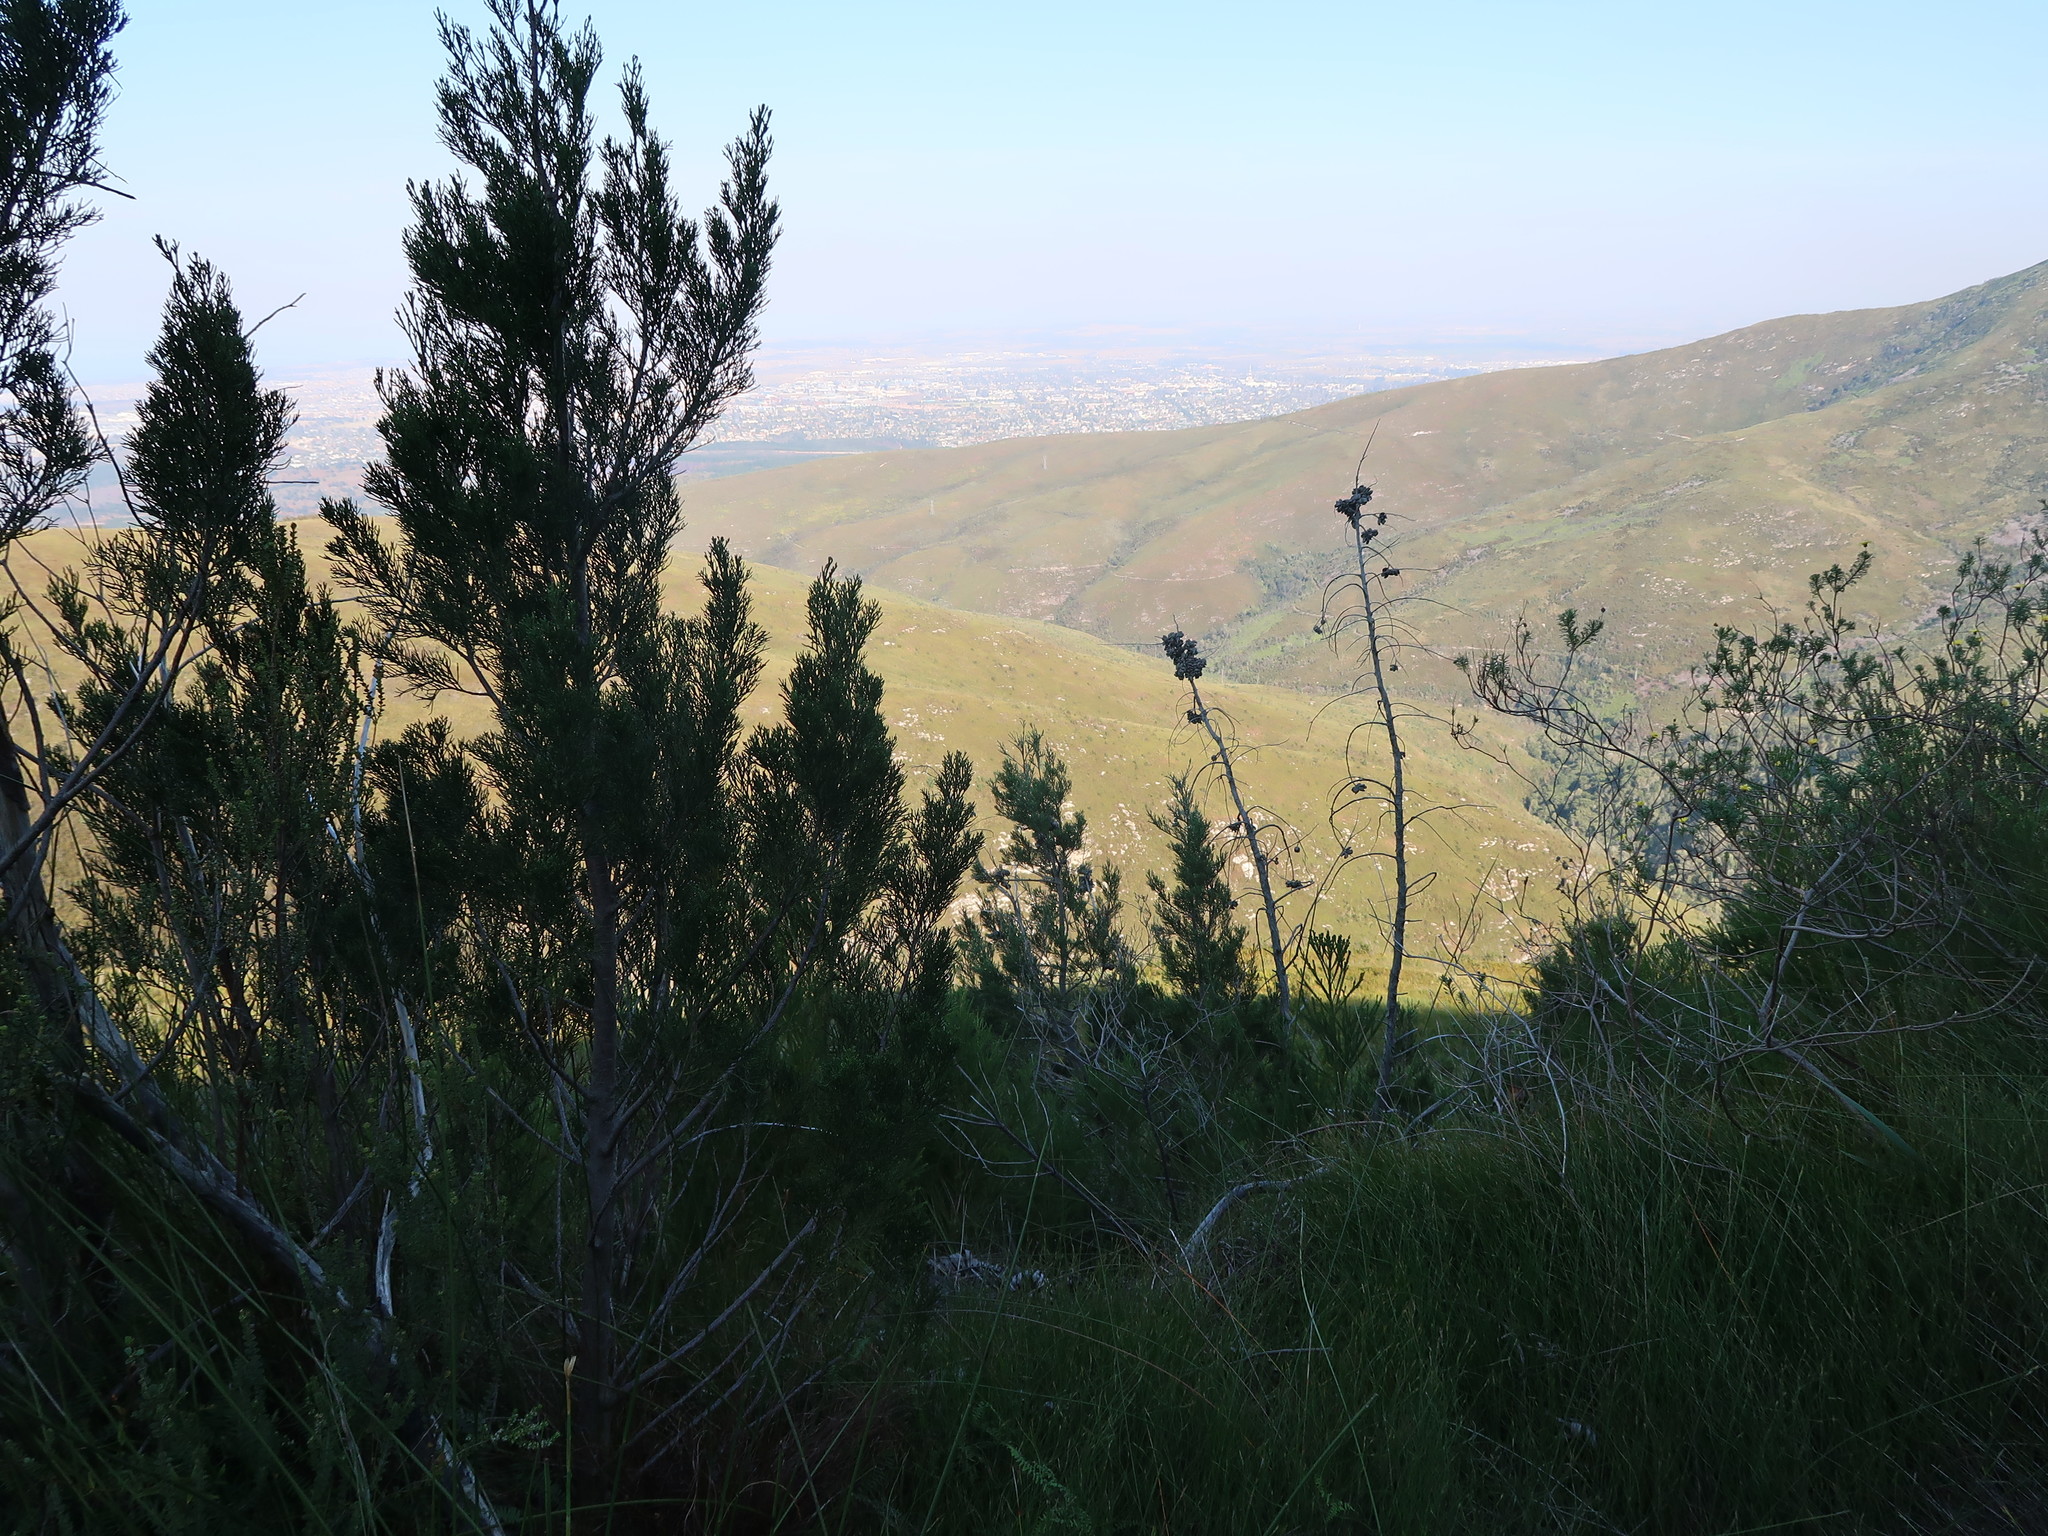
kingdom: Plantae
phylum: Tracheophyta
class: Pinopsida
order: Pinales
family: Cupressaceae
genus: Widdringtonia
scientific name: Widdringtonia nodiflora
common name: Cape cypress
